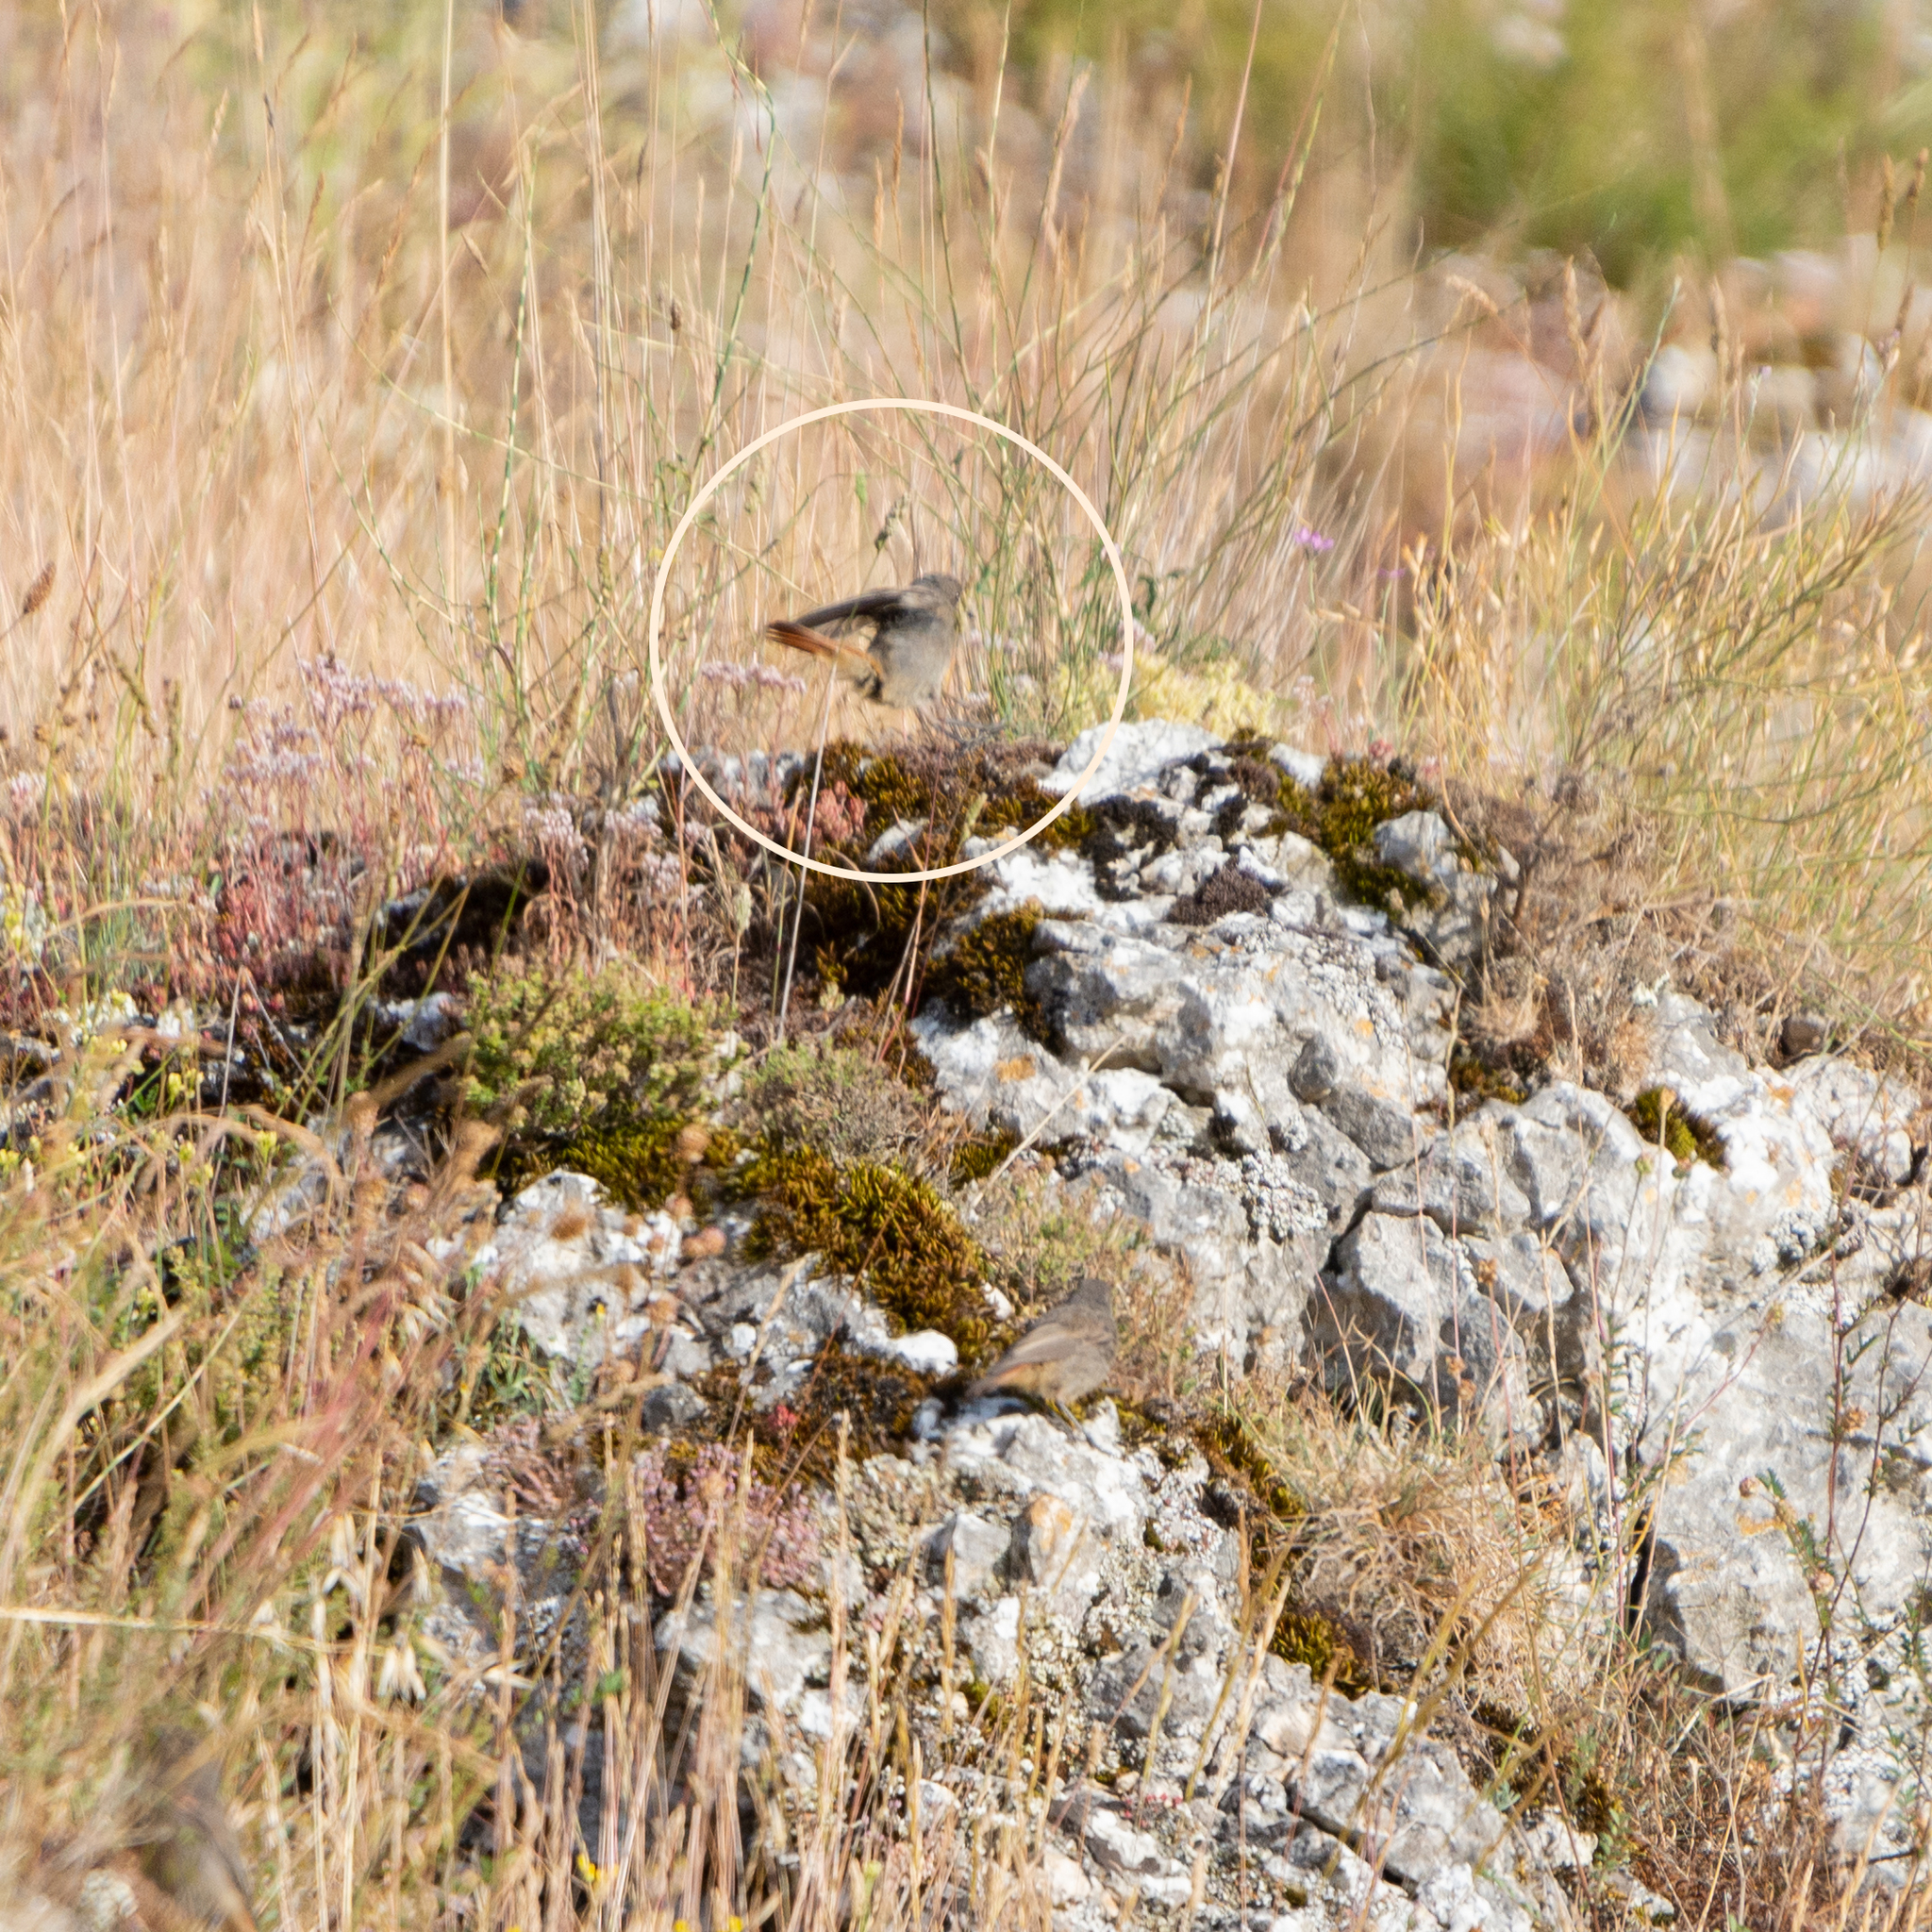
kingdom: Animalia
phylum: Chordata
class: Aves
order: Passeriformes
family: Muscicapidae
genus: Phoenicurus
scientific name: Phoenicurus ochruros
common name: Black redstart
